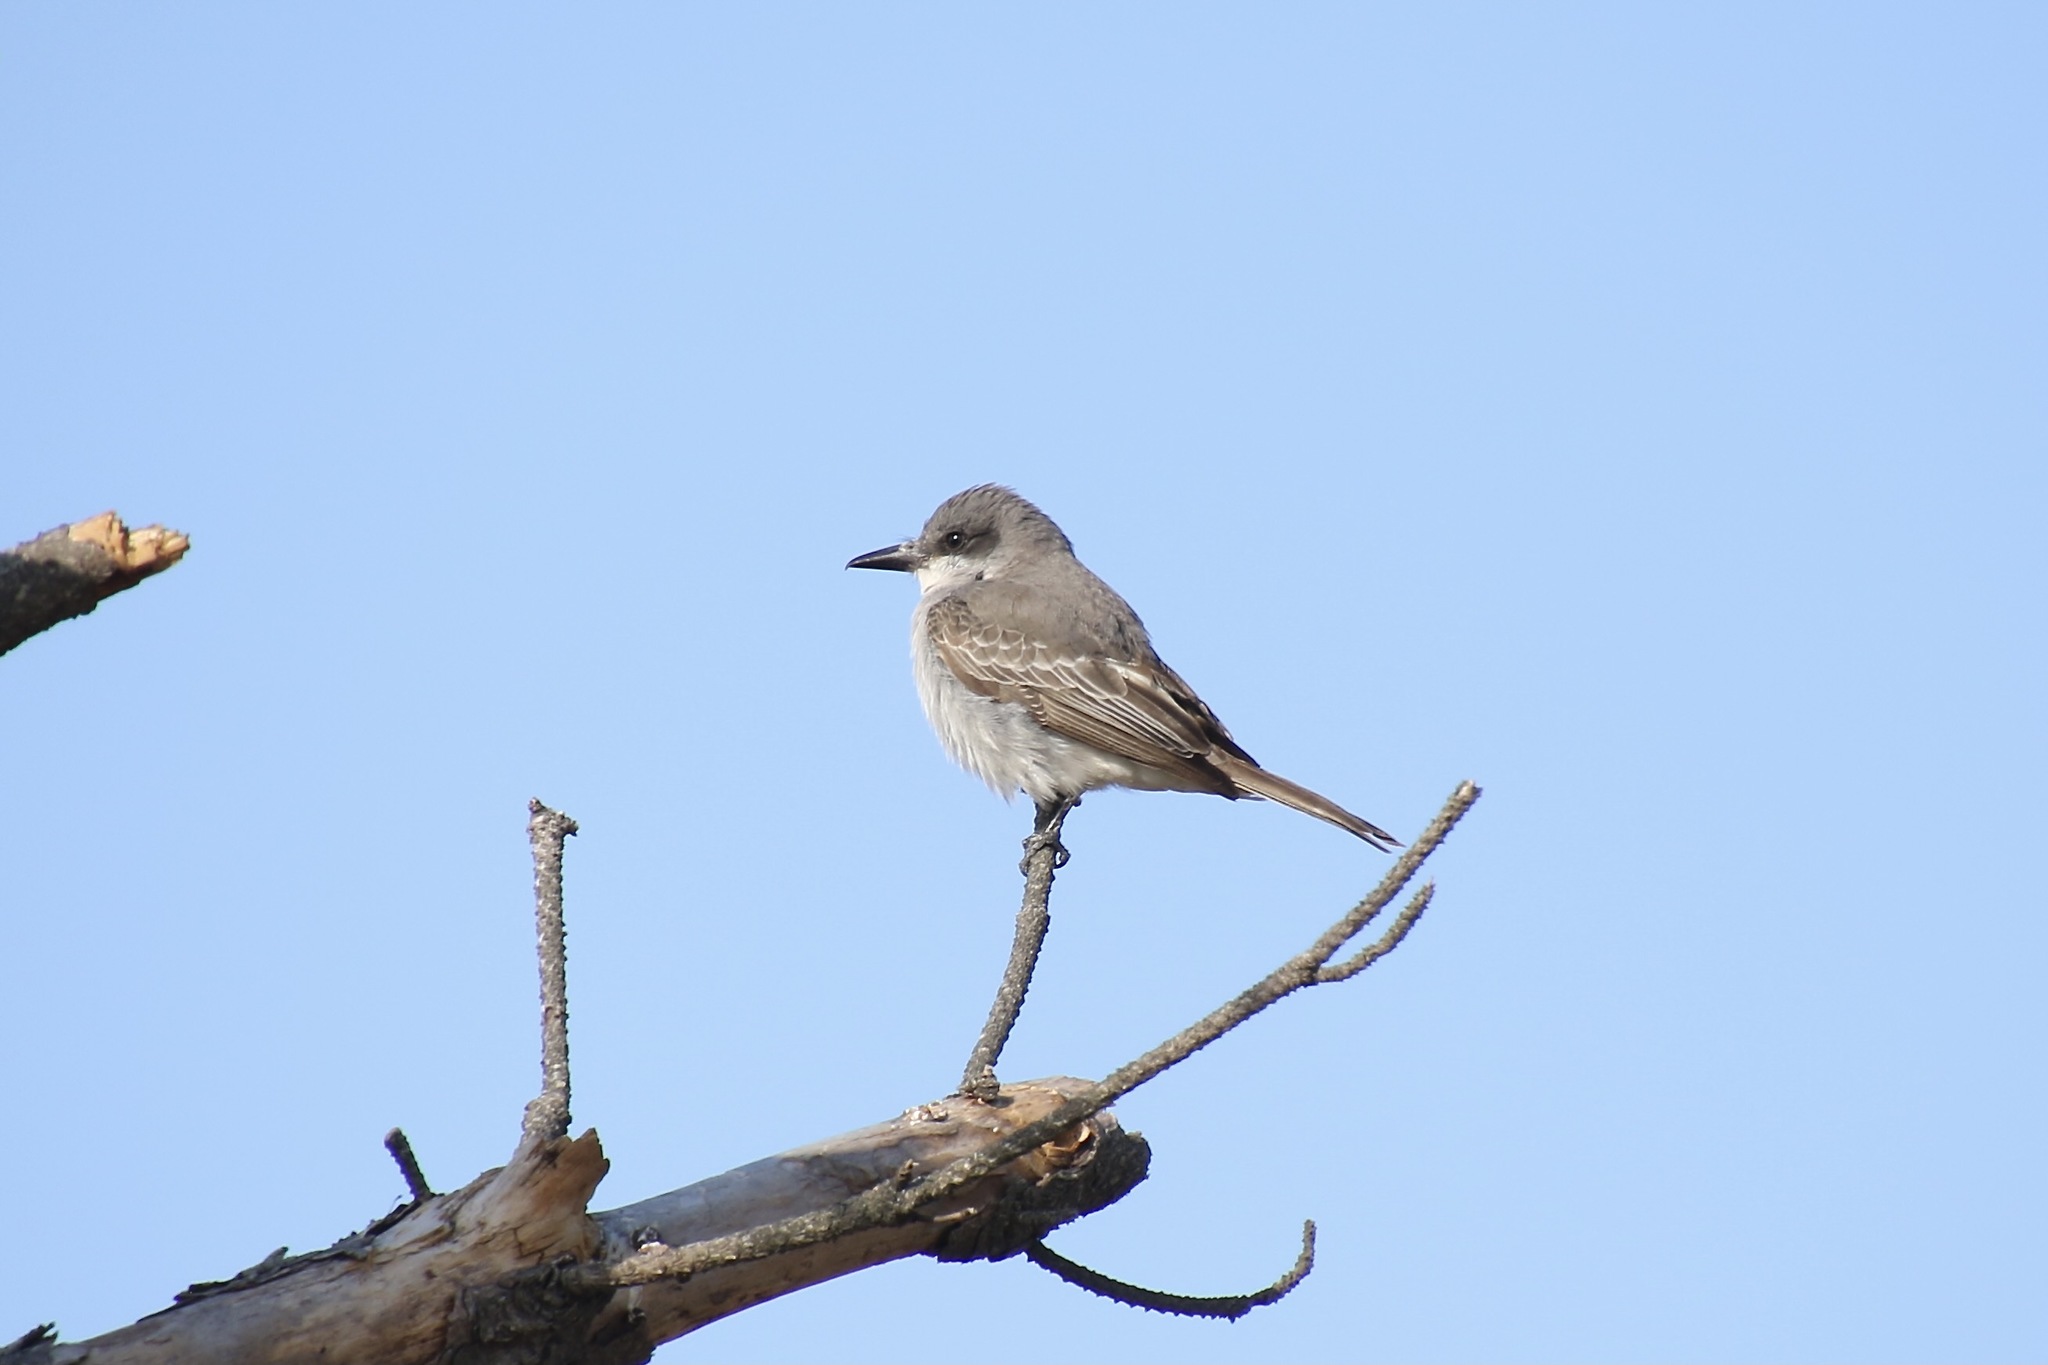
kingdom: Animalia
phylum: Chordata
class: Aves
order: Passeriformes
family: Tyrannidae
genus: Tyrannus
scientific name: Tyrannus dominicensis
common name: Gray kingbird
